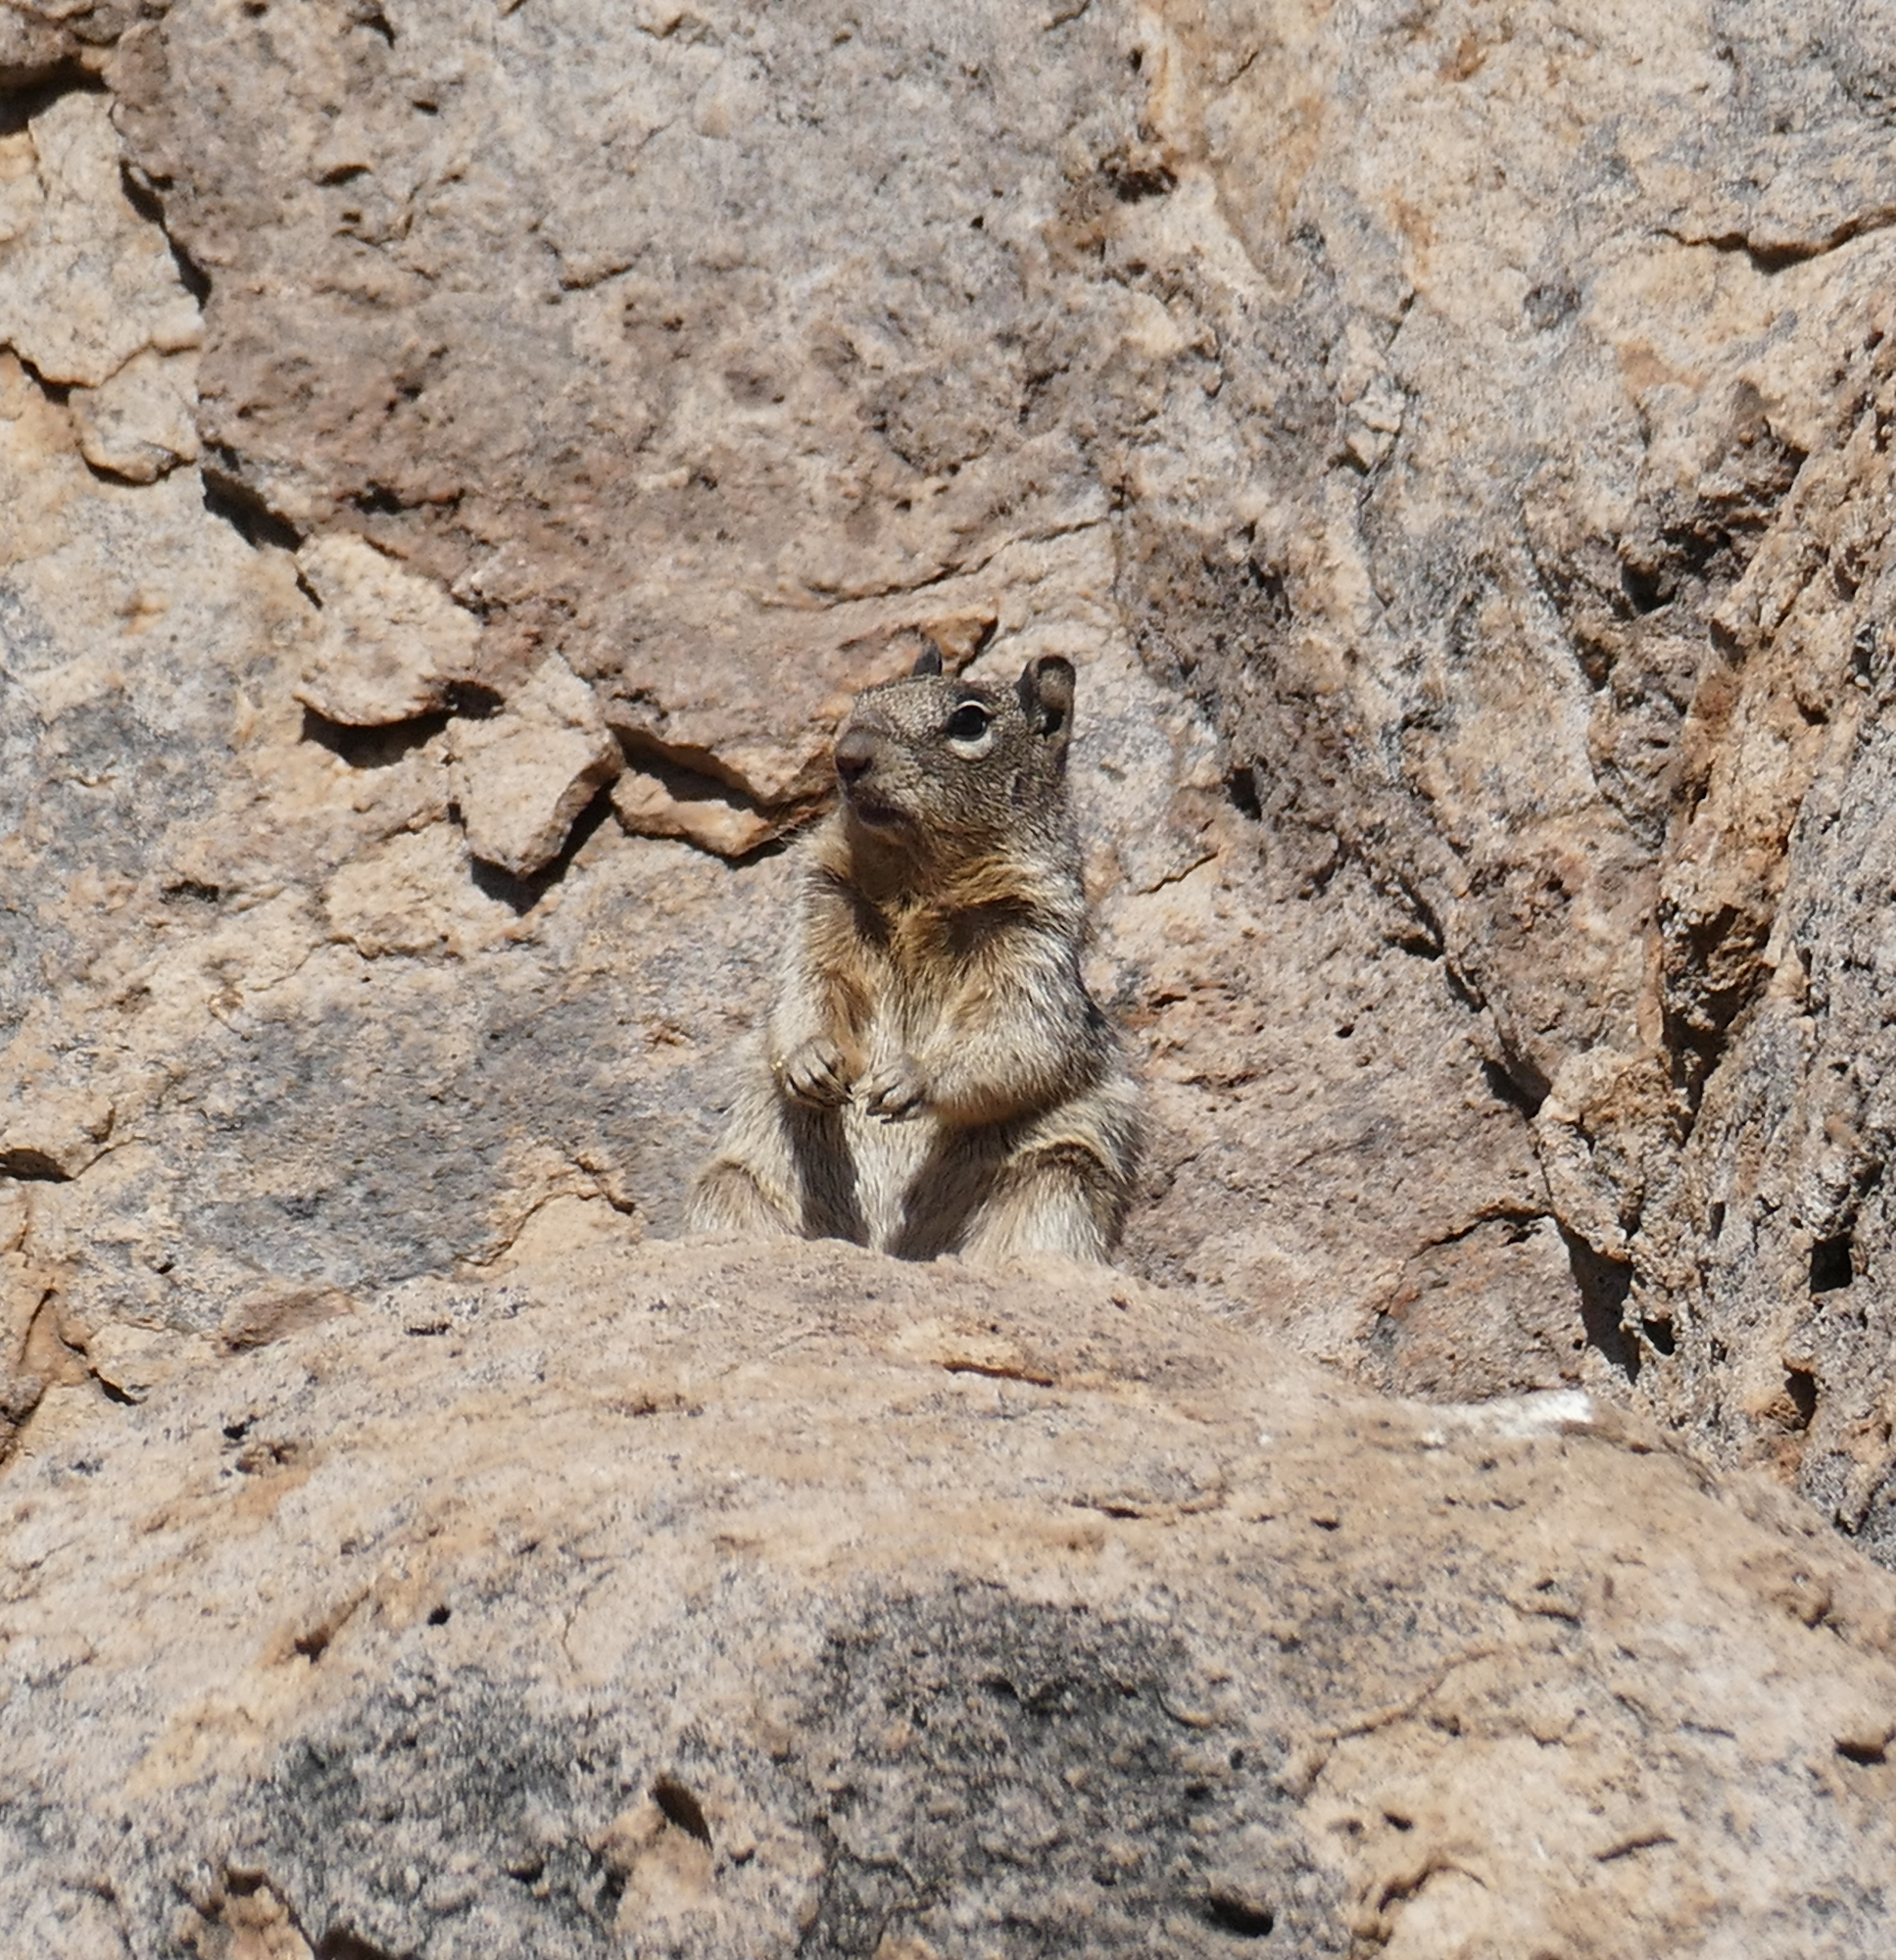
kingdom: Animalia
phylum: Chordata
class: Mammalia
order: Rodentia
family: Sciuridae
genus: Otospermophilus
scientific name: Otospermophilus variegatus
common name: Rock squirrel
